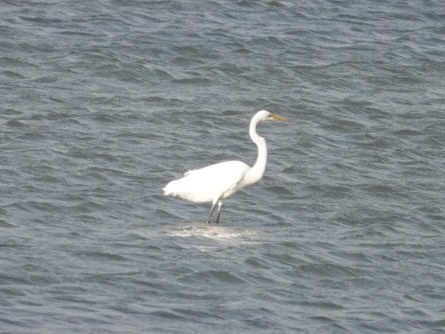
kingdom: Animalia
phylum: Chordata
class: Aves
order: Pelecaniformes
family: Ardeidae
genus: Ardea
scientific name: Ardea alba
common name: Great egret
